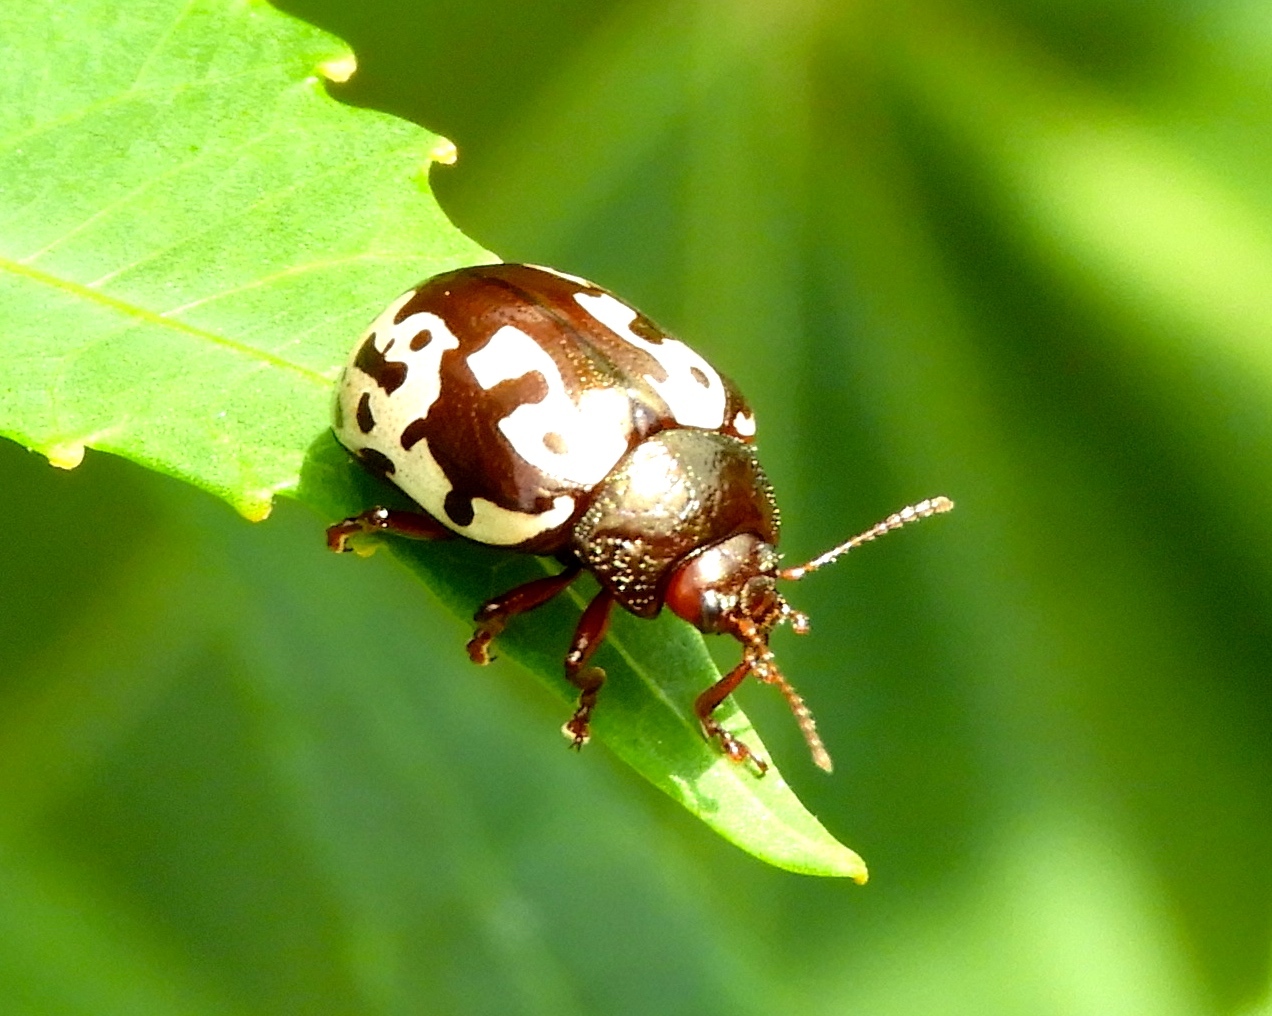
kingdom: Animalia
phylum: Arthropoda
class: Insecta
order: Coleoptera
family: Chrysomelidae
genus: Calligrapha
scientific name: Calligrapha intermedia
